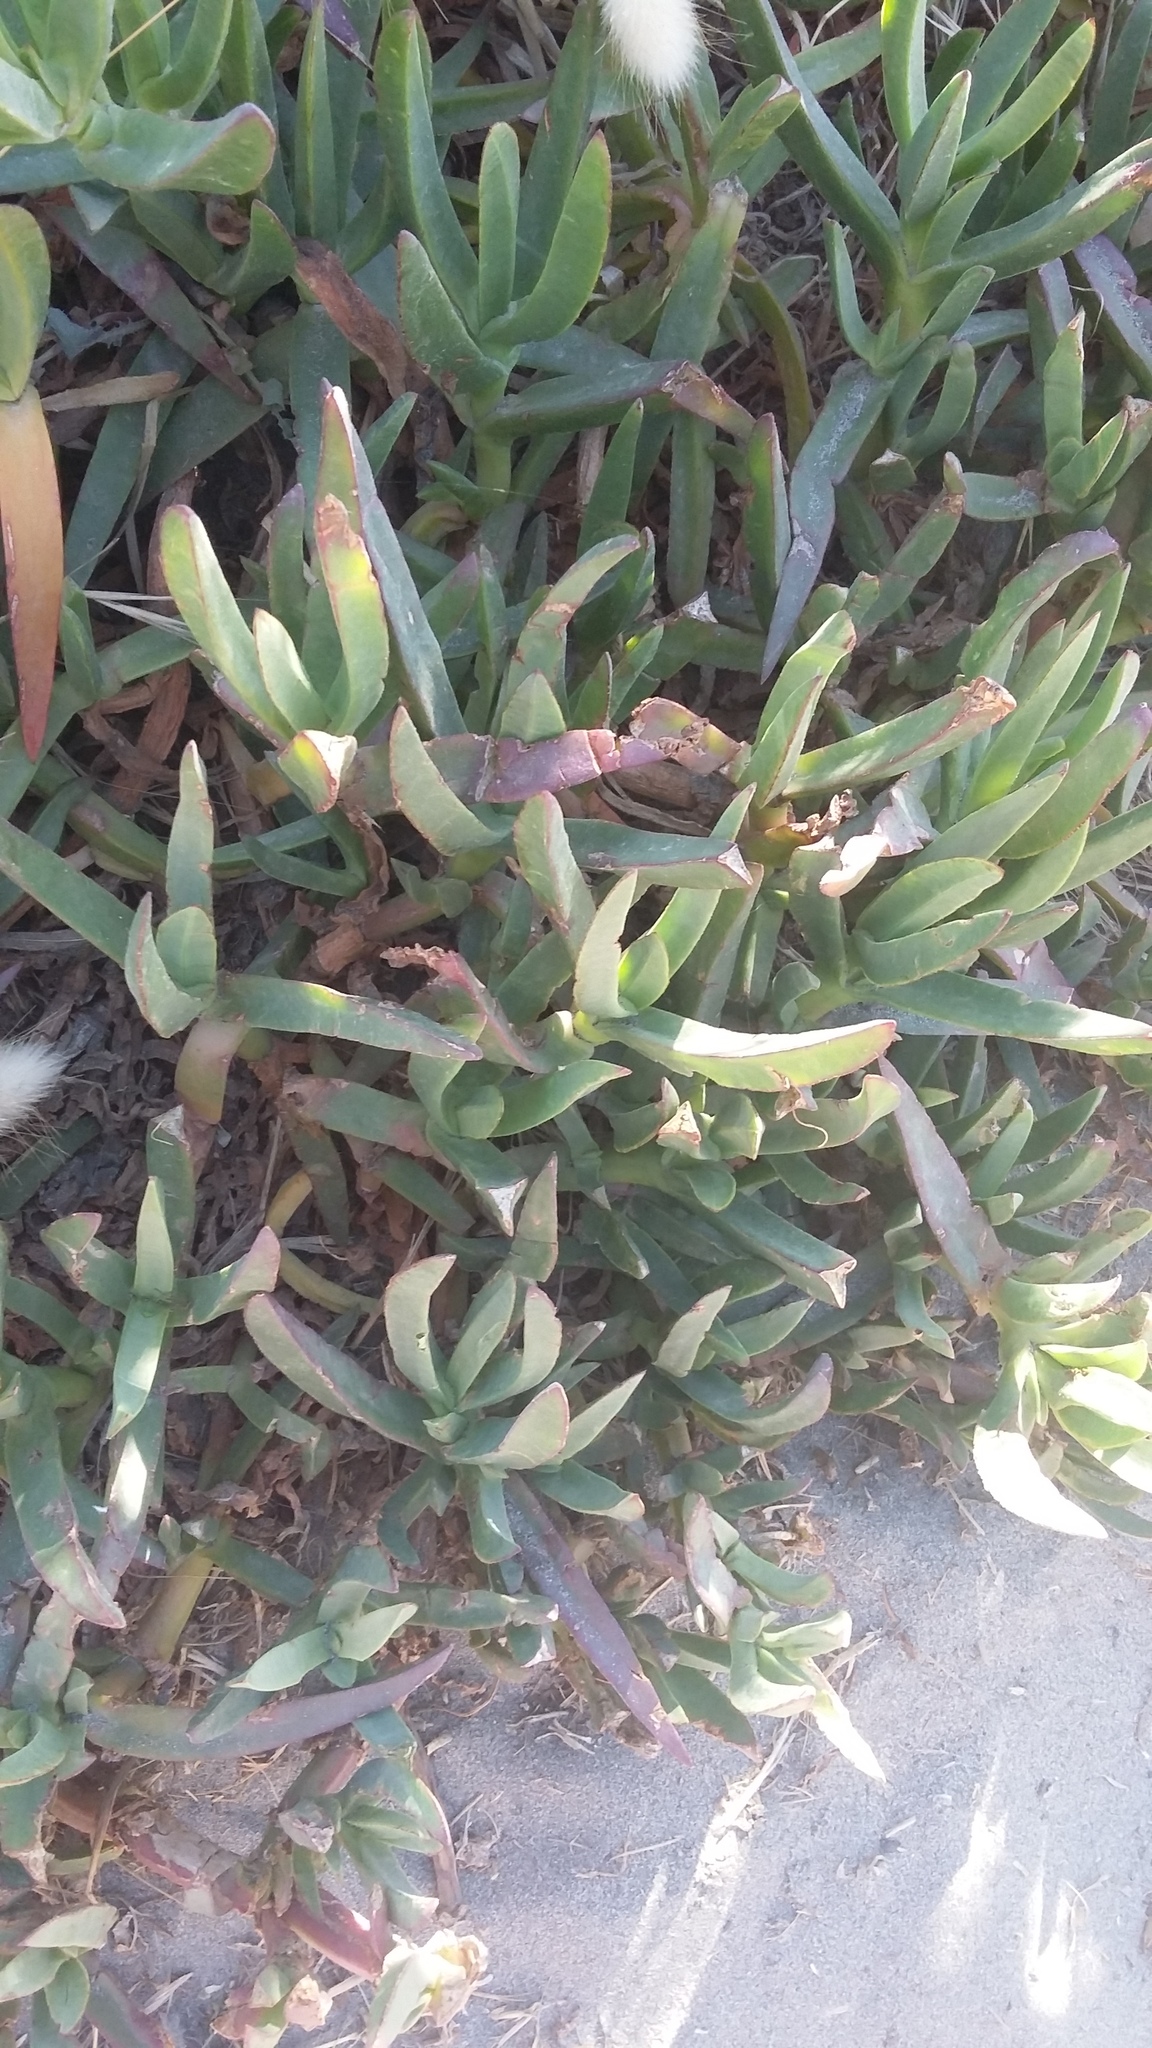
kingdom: Plantae
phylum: Tracheophyta
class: Magnoliopsida
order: Caryophyllales
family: Aizoaceae
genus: Carpobrotus
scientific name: Carpobrotus edulis
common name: Hottentot-fig
